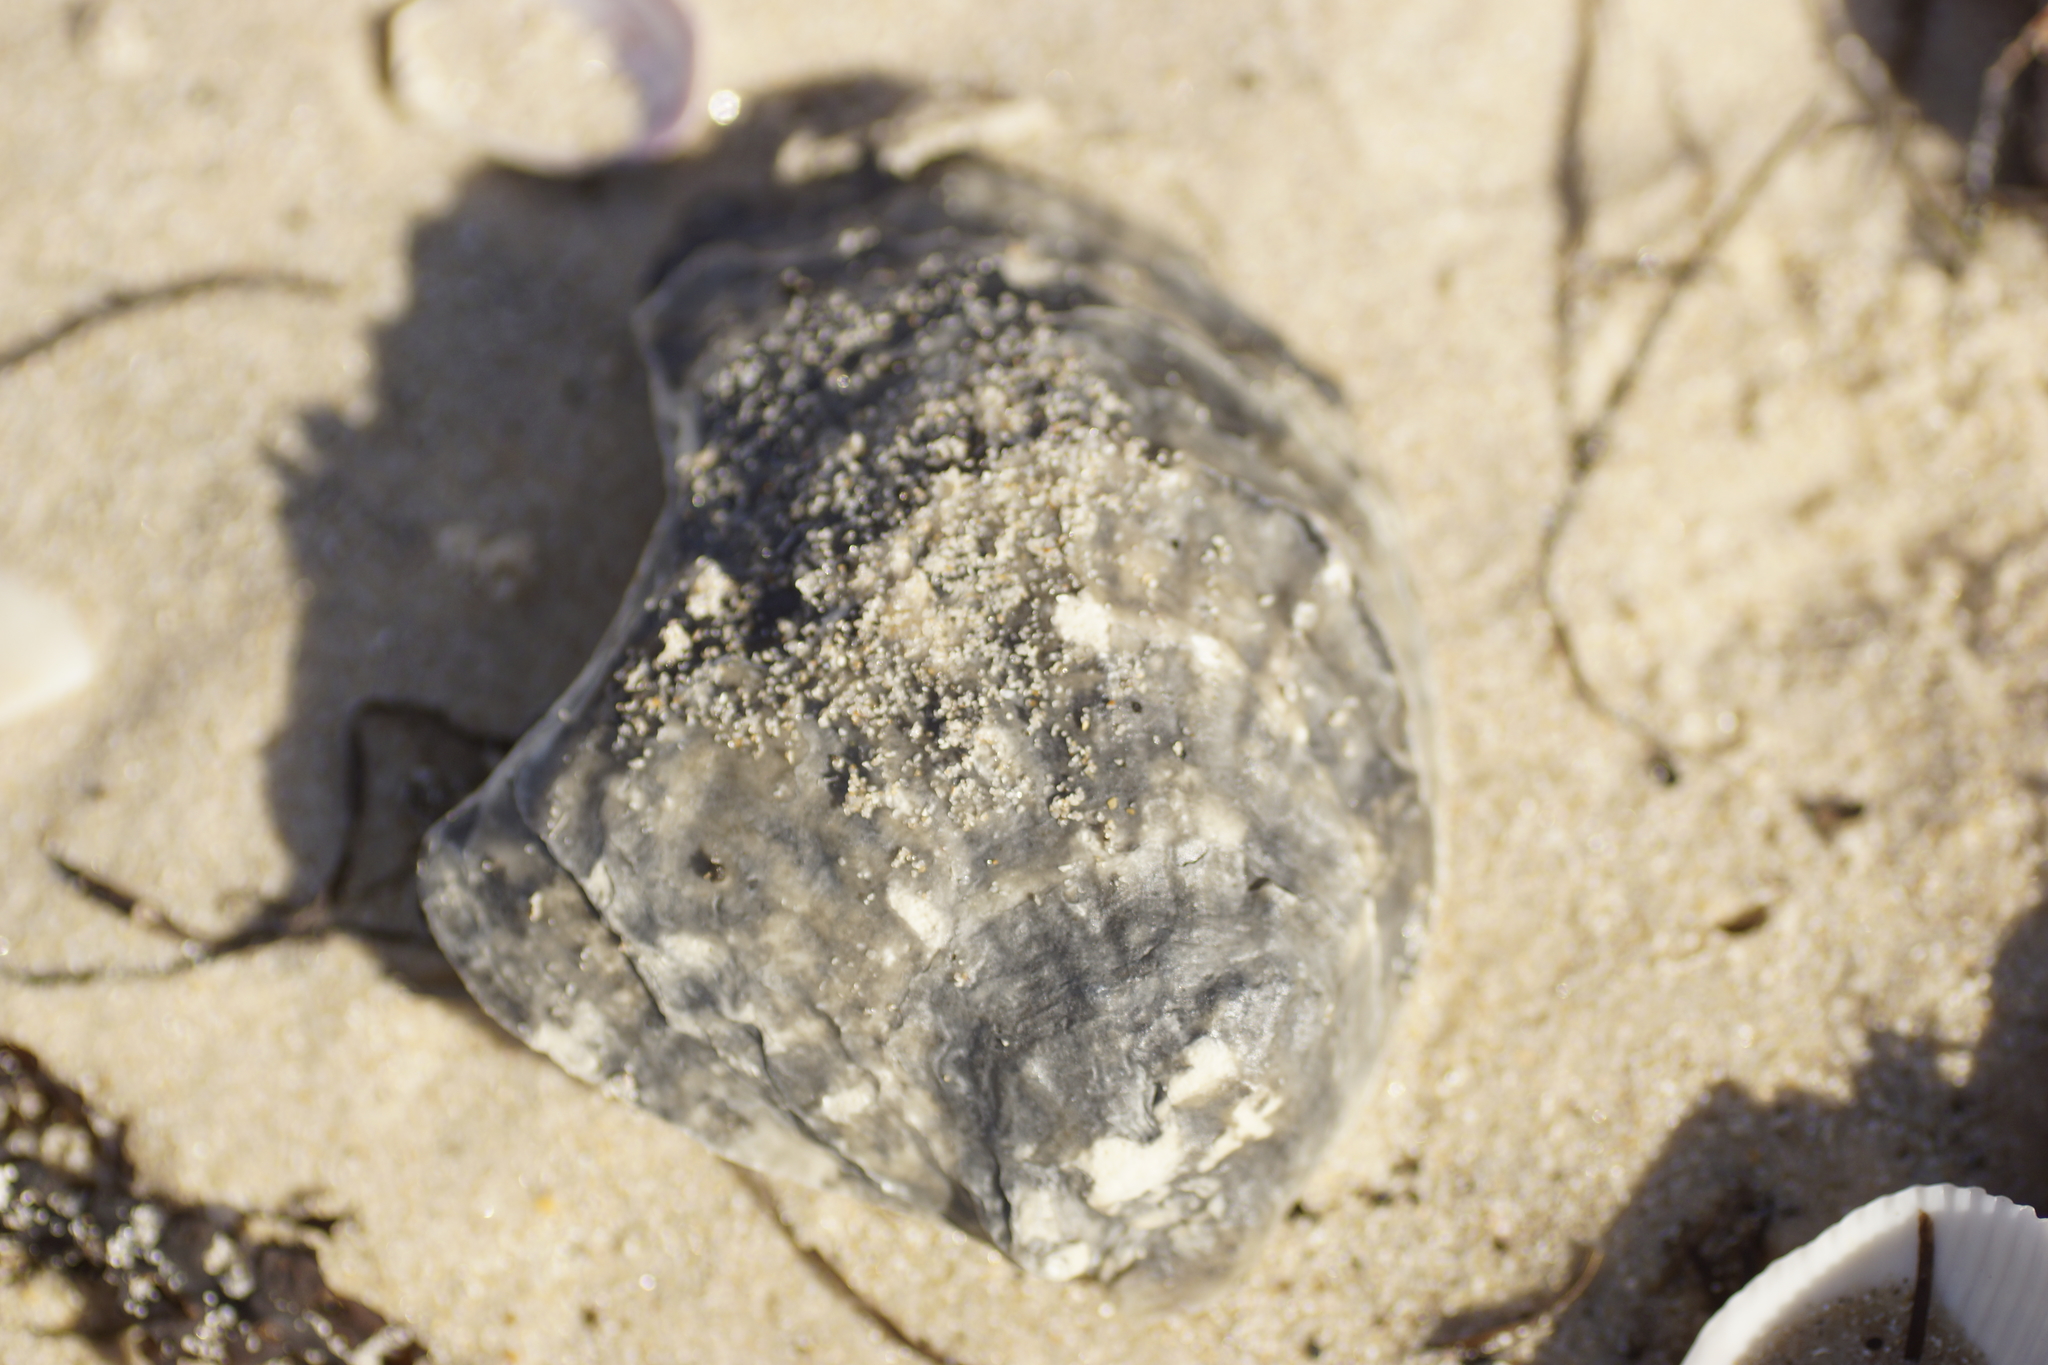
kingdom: Animalia
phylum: Mollusca
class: Bivalvia
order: Ostreida
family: Ostreidae
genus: Ostrea
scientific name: Ostrea angasi
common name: Angasi oyster
